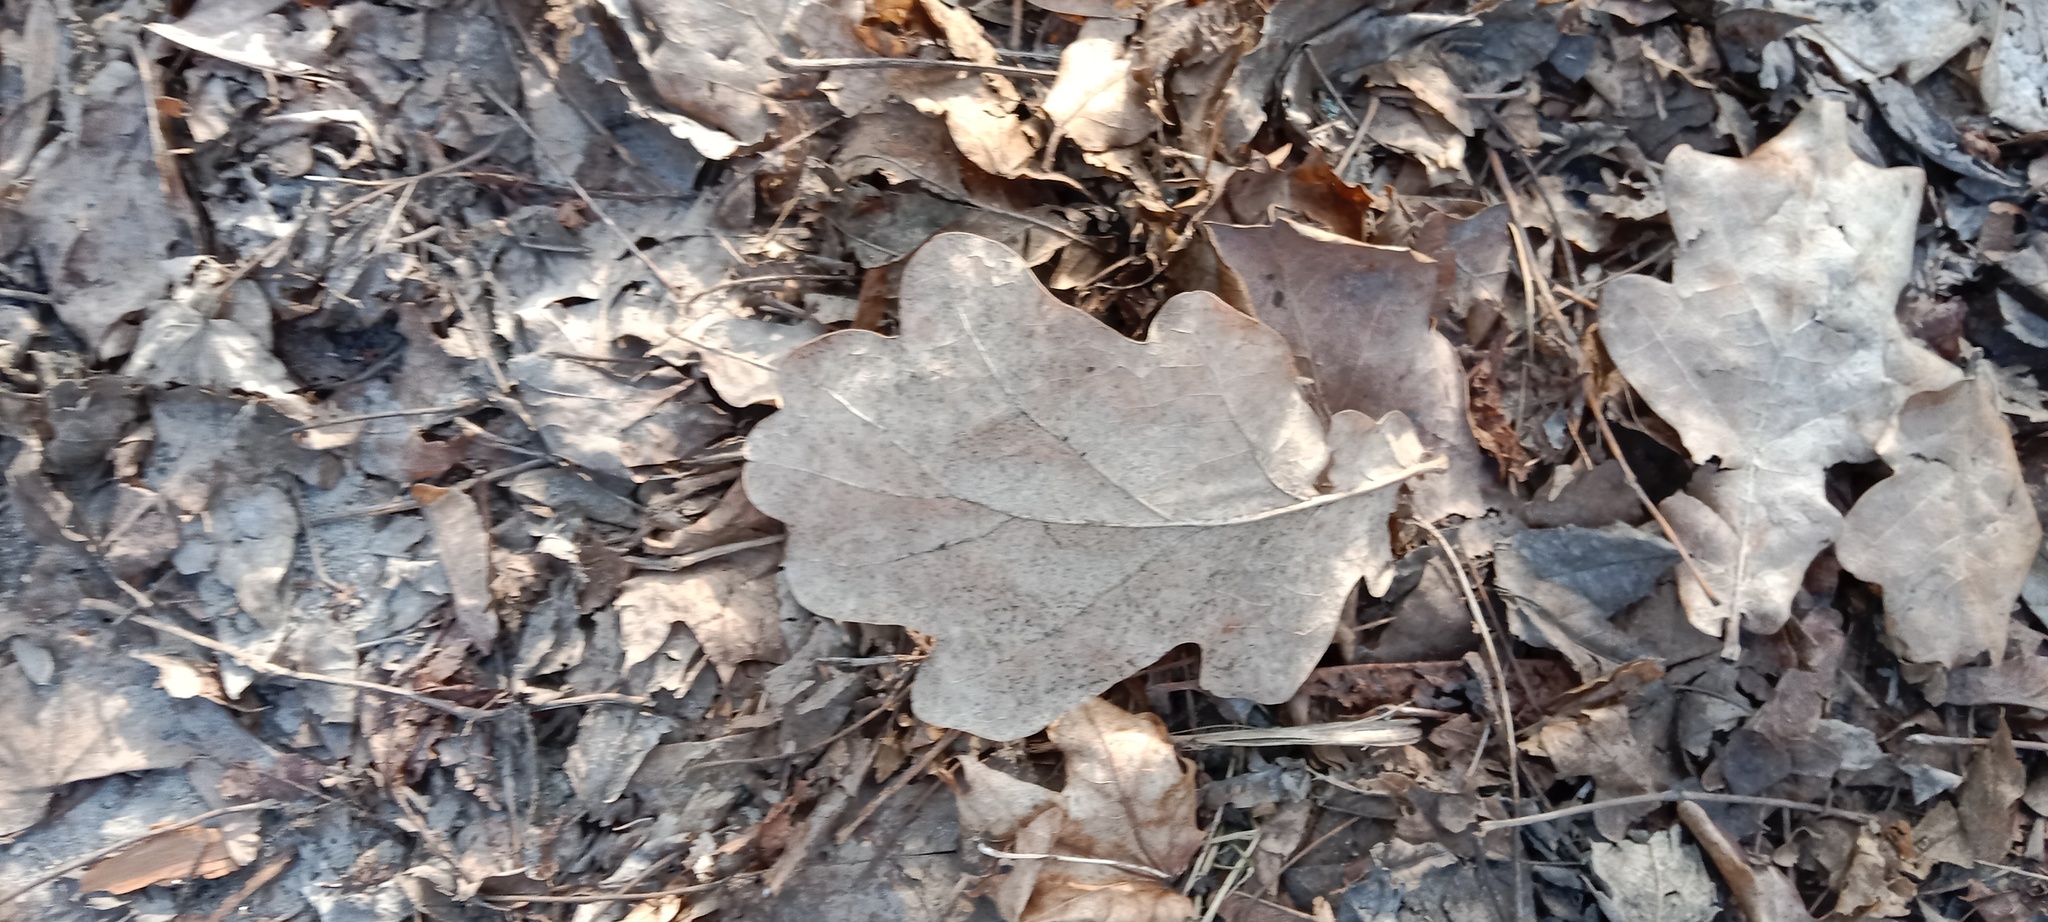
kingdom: Plantae
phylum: Tracheophyta
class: Magnoliopsida
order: Fagales
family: Fagaceae
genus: Quercus
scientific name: Quercus robur
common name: Pedunculate oak
